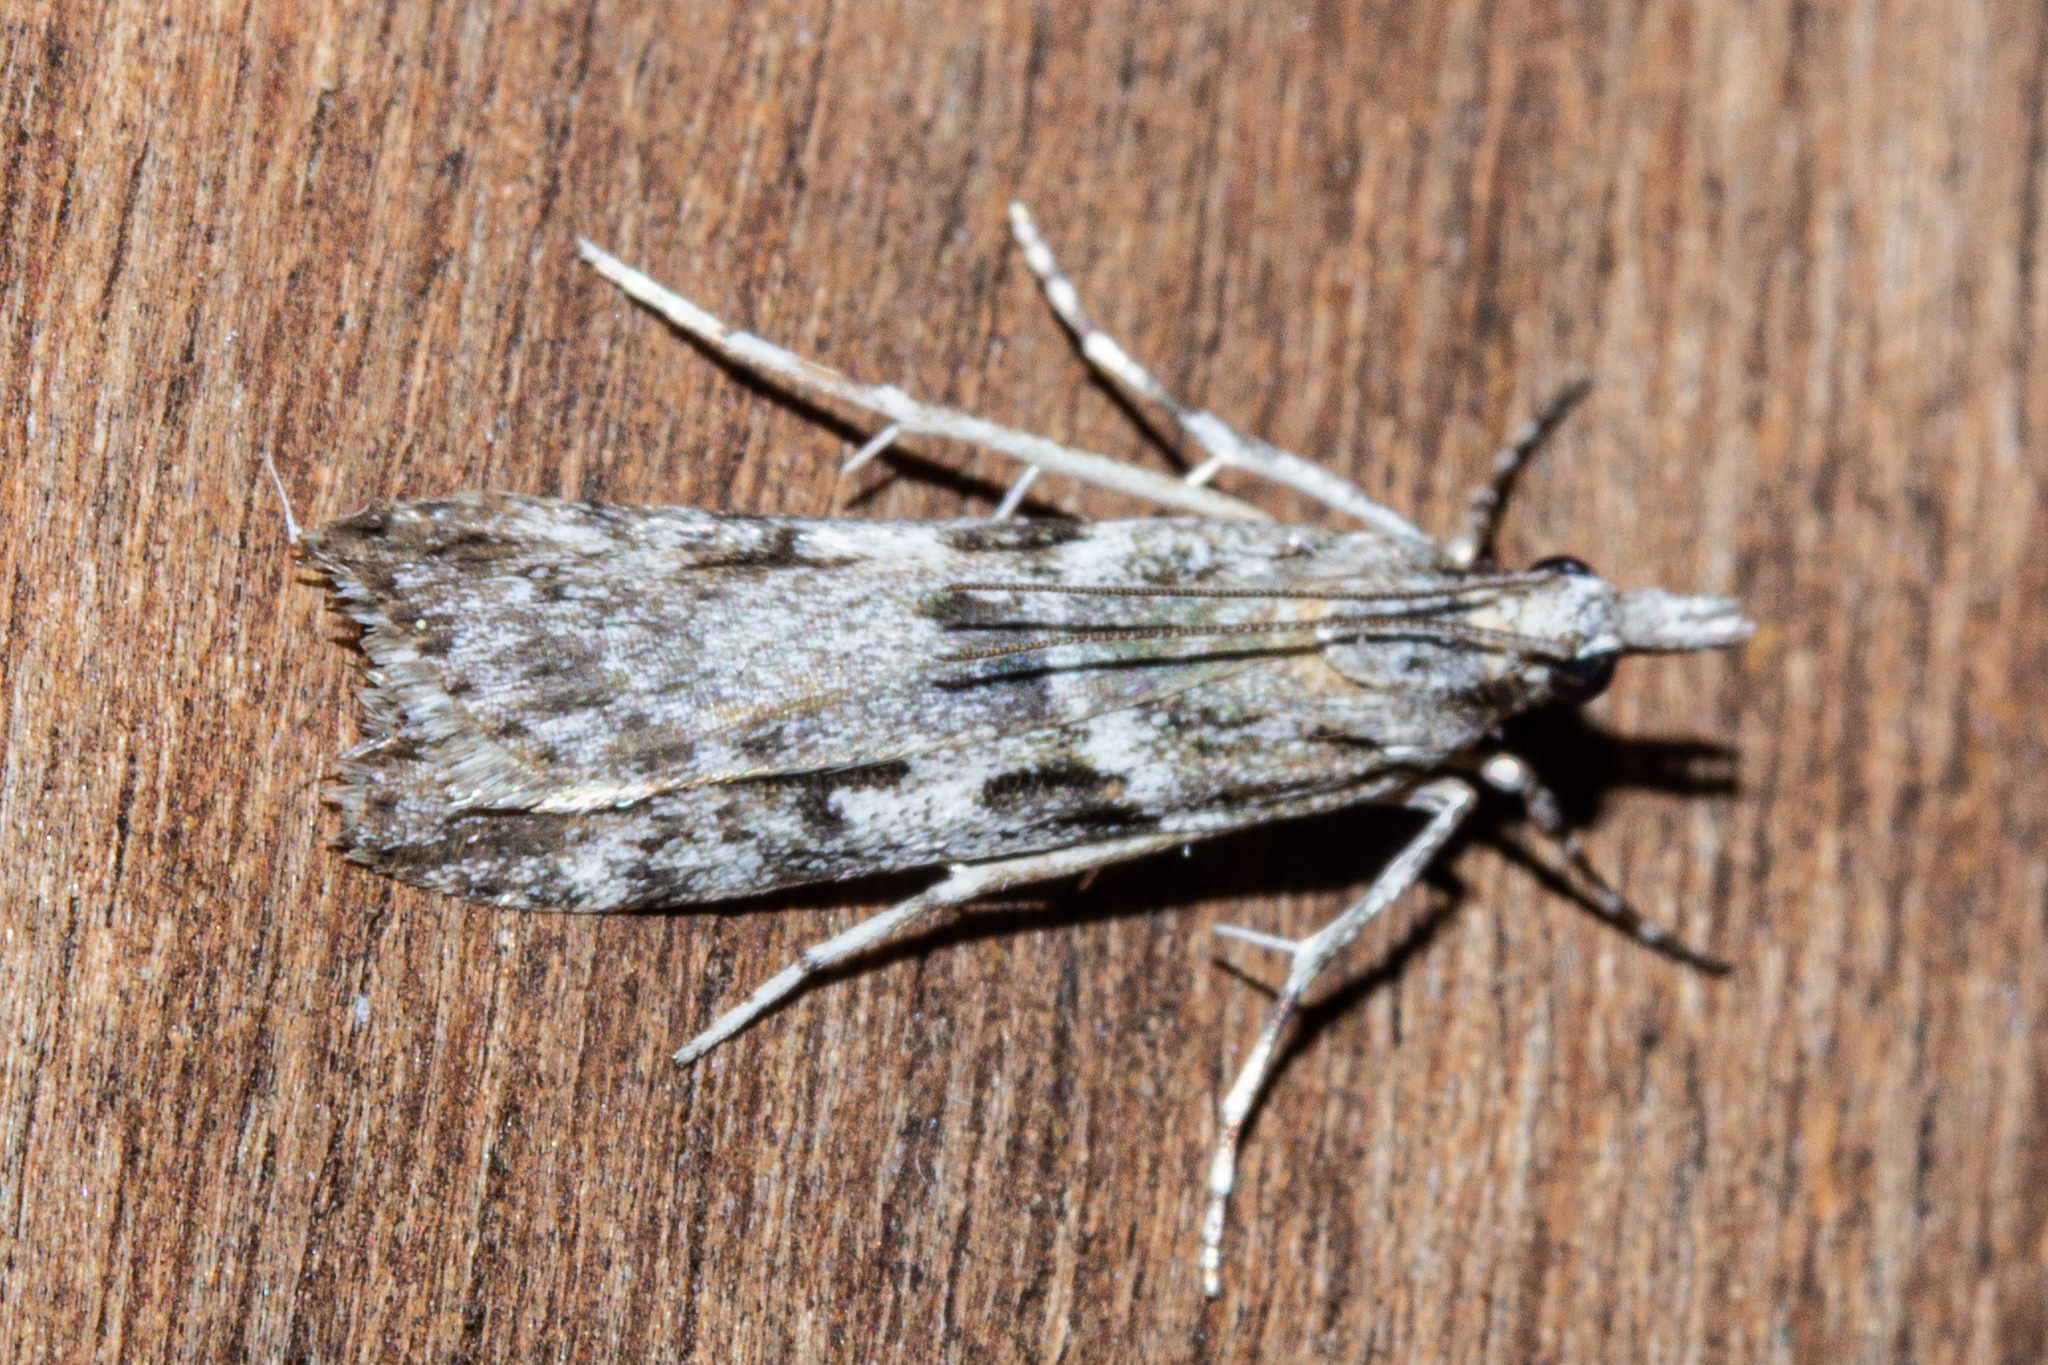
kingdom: Animalia
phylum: Arthropoda
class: Insecta
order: Lepidoptera
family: Crambidae
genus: Scoparia
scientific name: Scoparia halopis
